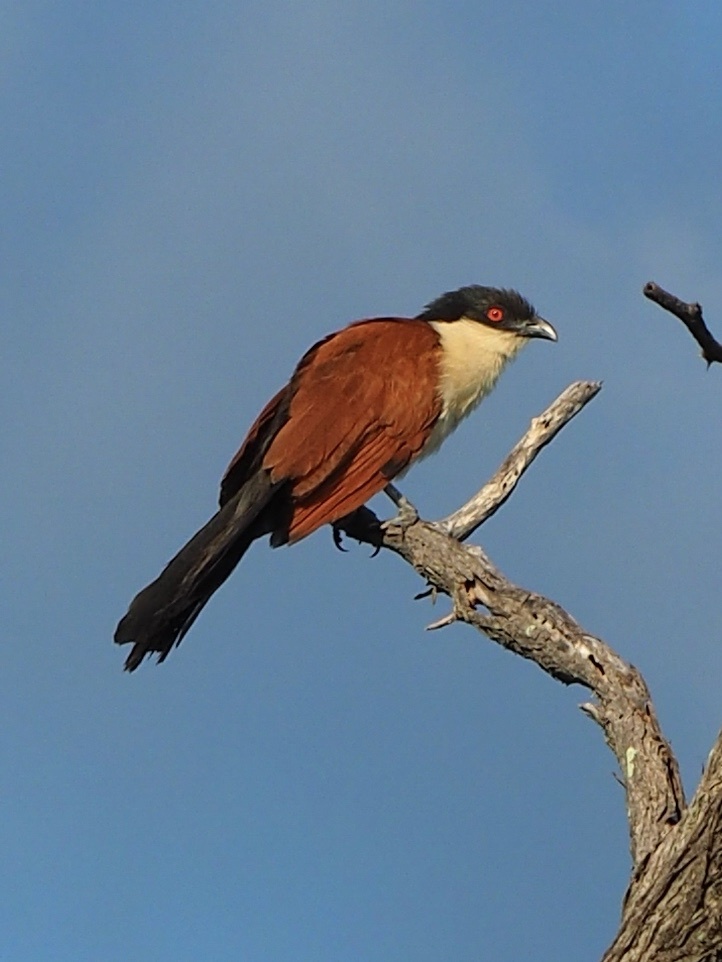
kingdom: Animalia
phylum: Chordata
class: Aves
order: Cuculiformes
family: Cuculidae
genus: Centropus
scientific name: Centropus senegalensis
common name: Senegal coucal
